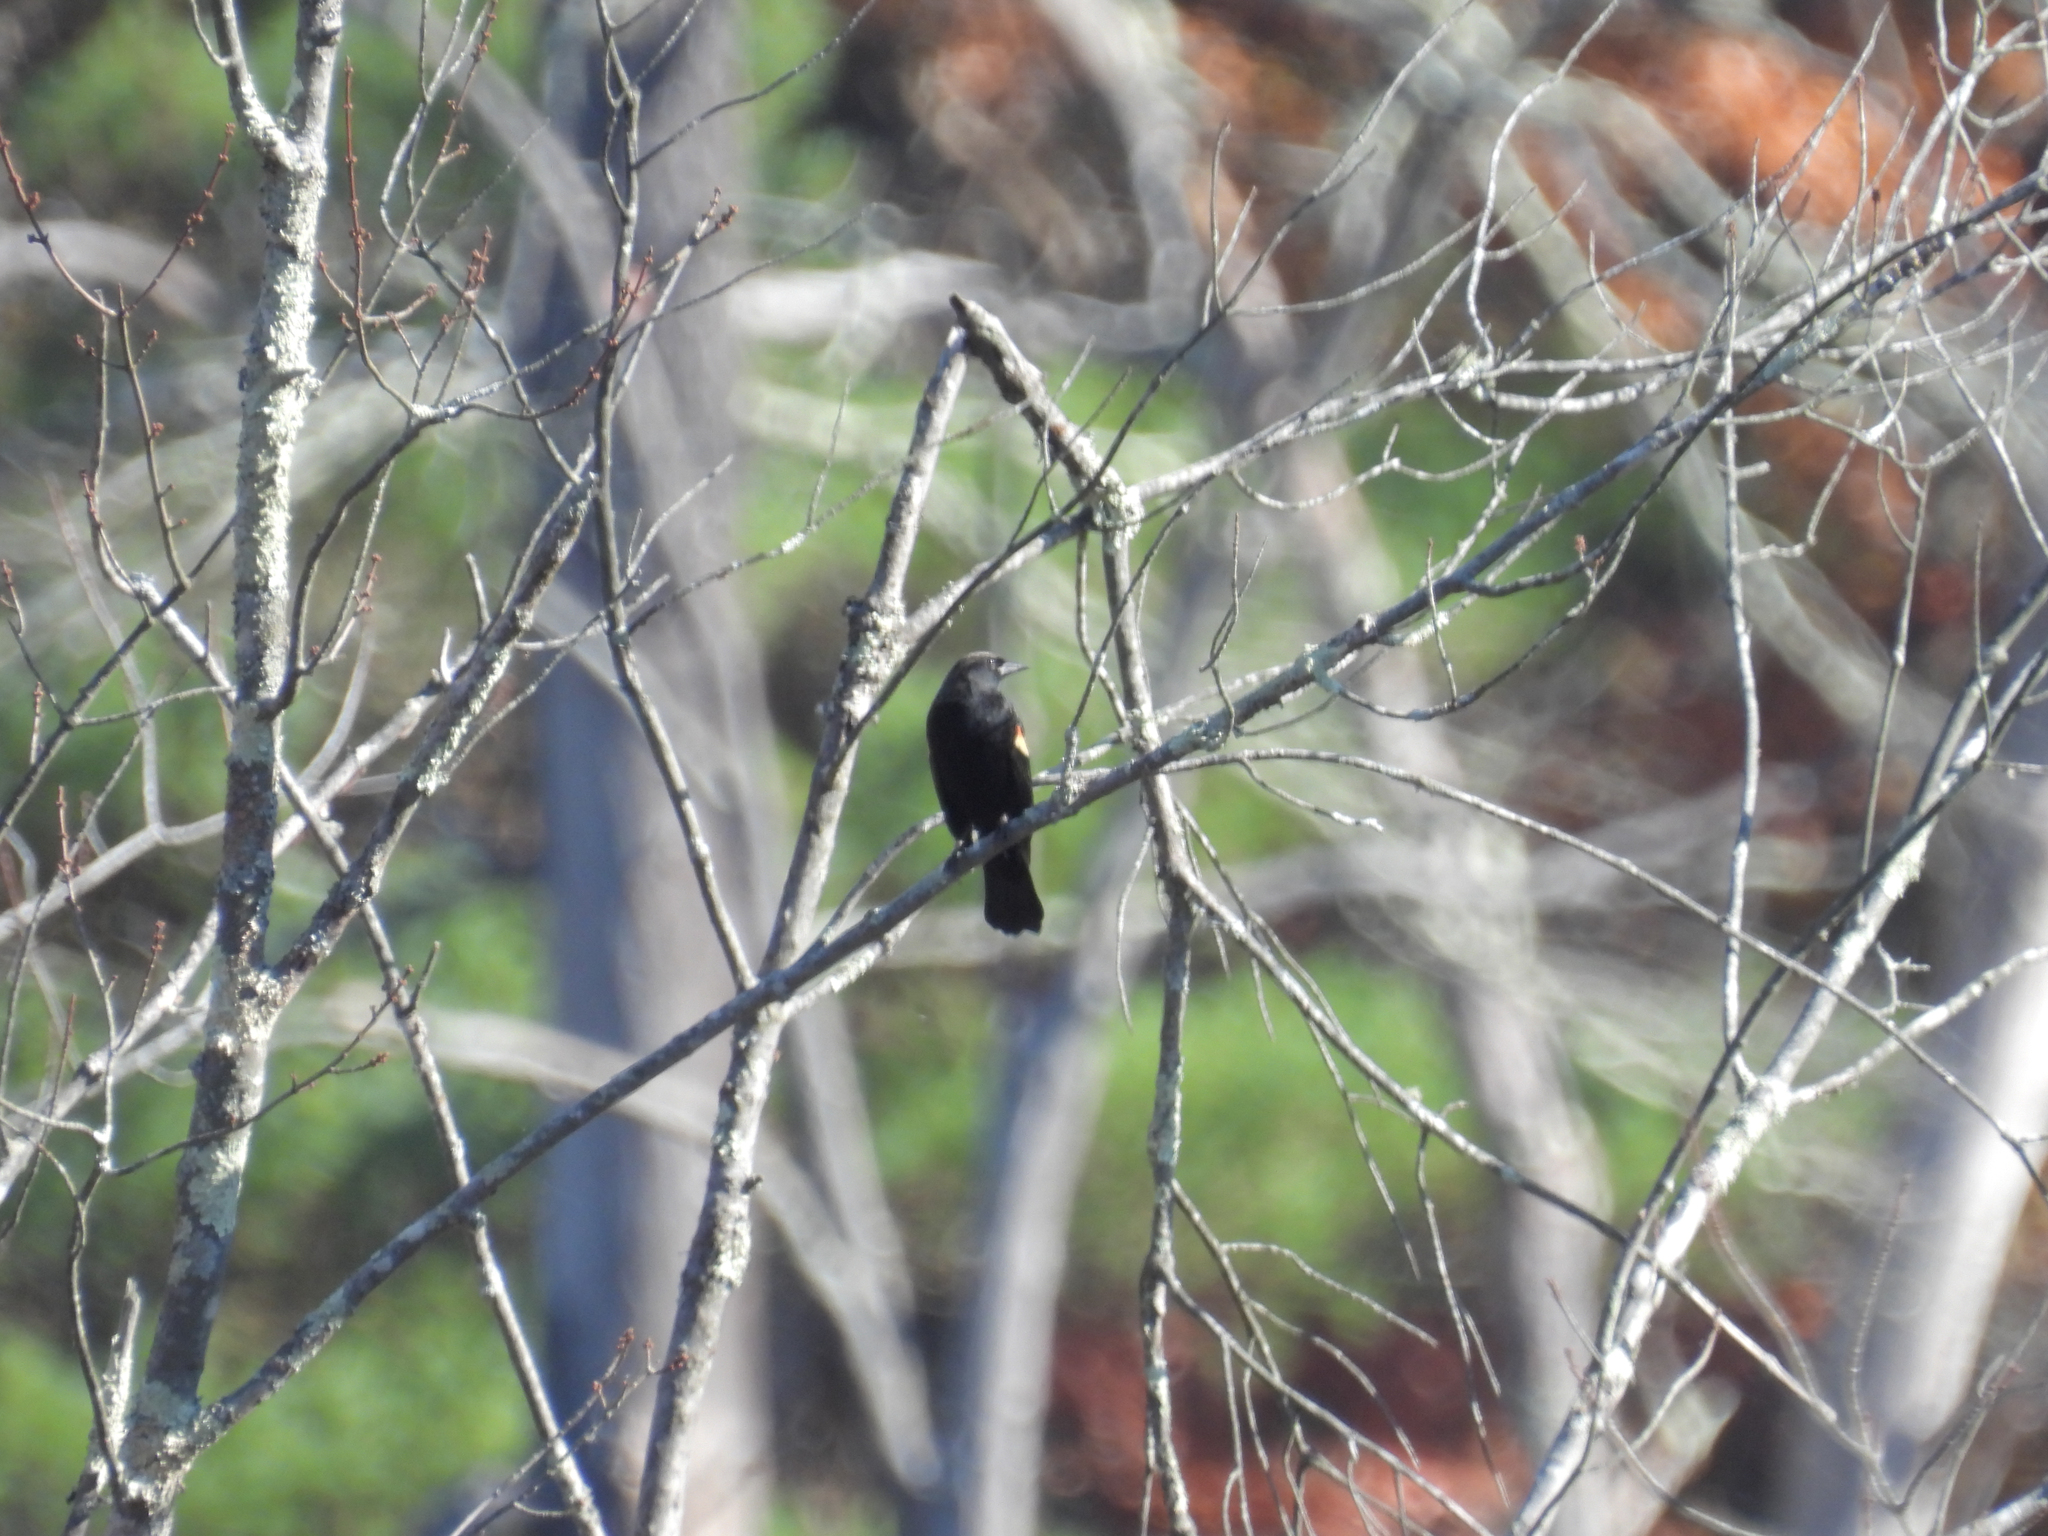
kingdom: Animalia
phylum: Chordata
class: Aves
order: Passeriformes
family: Icteridae
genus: Agelaius
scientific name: Agelaius phoeniceus
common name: Red-winged blackbird
